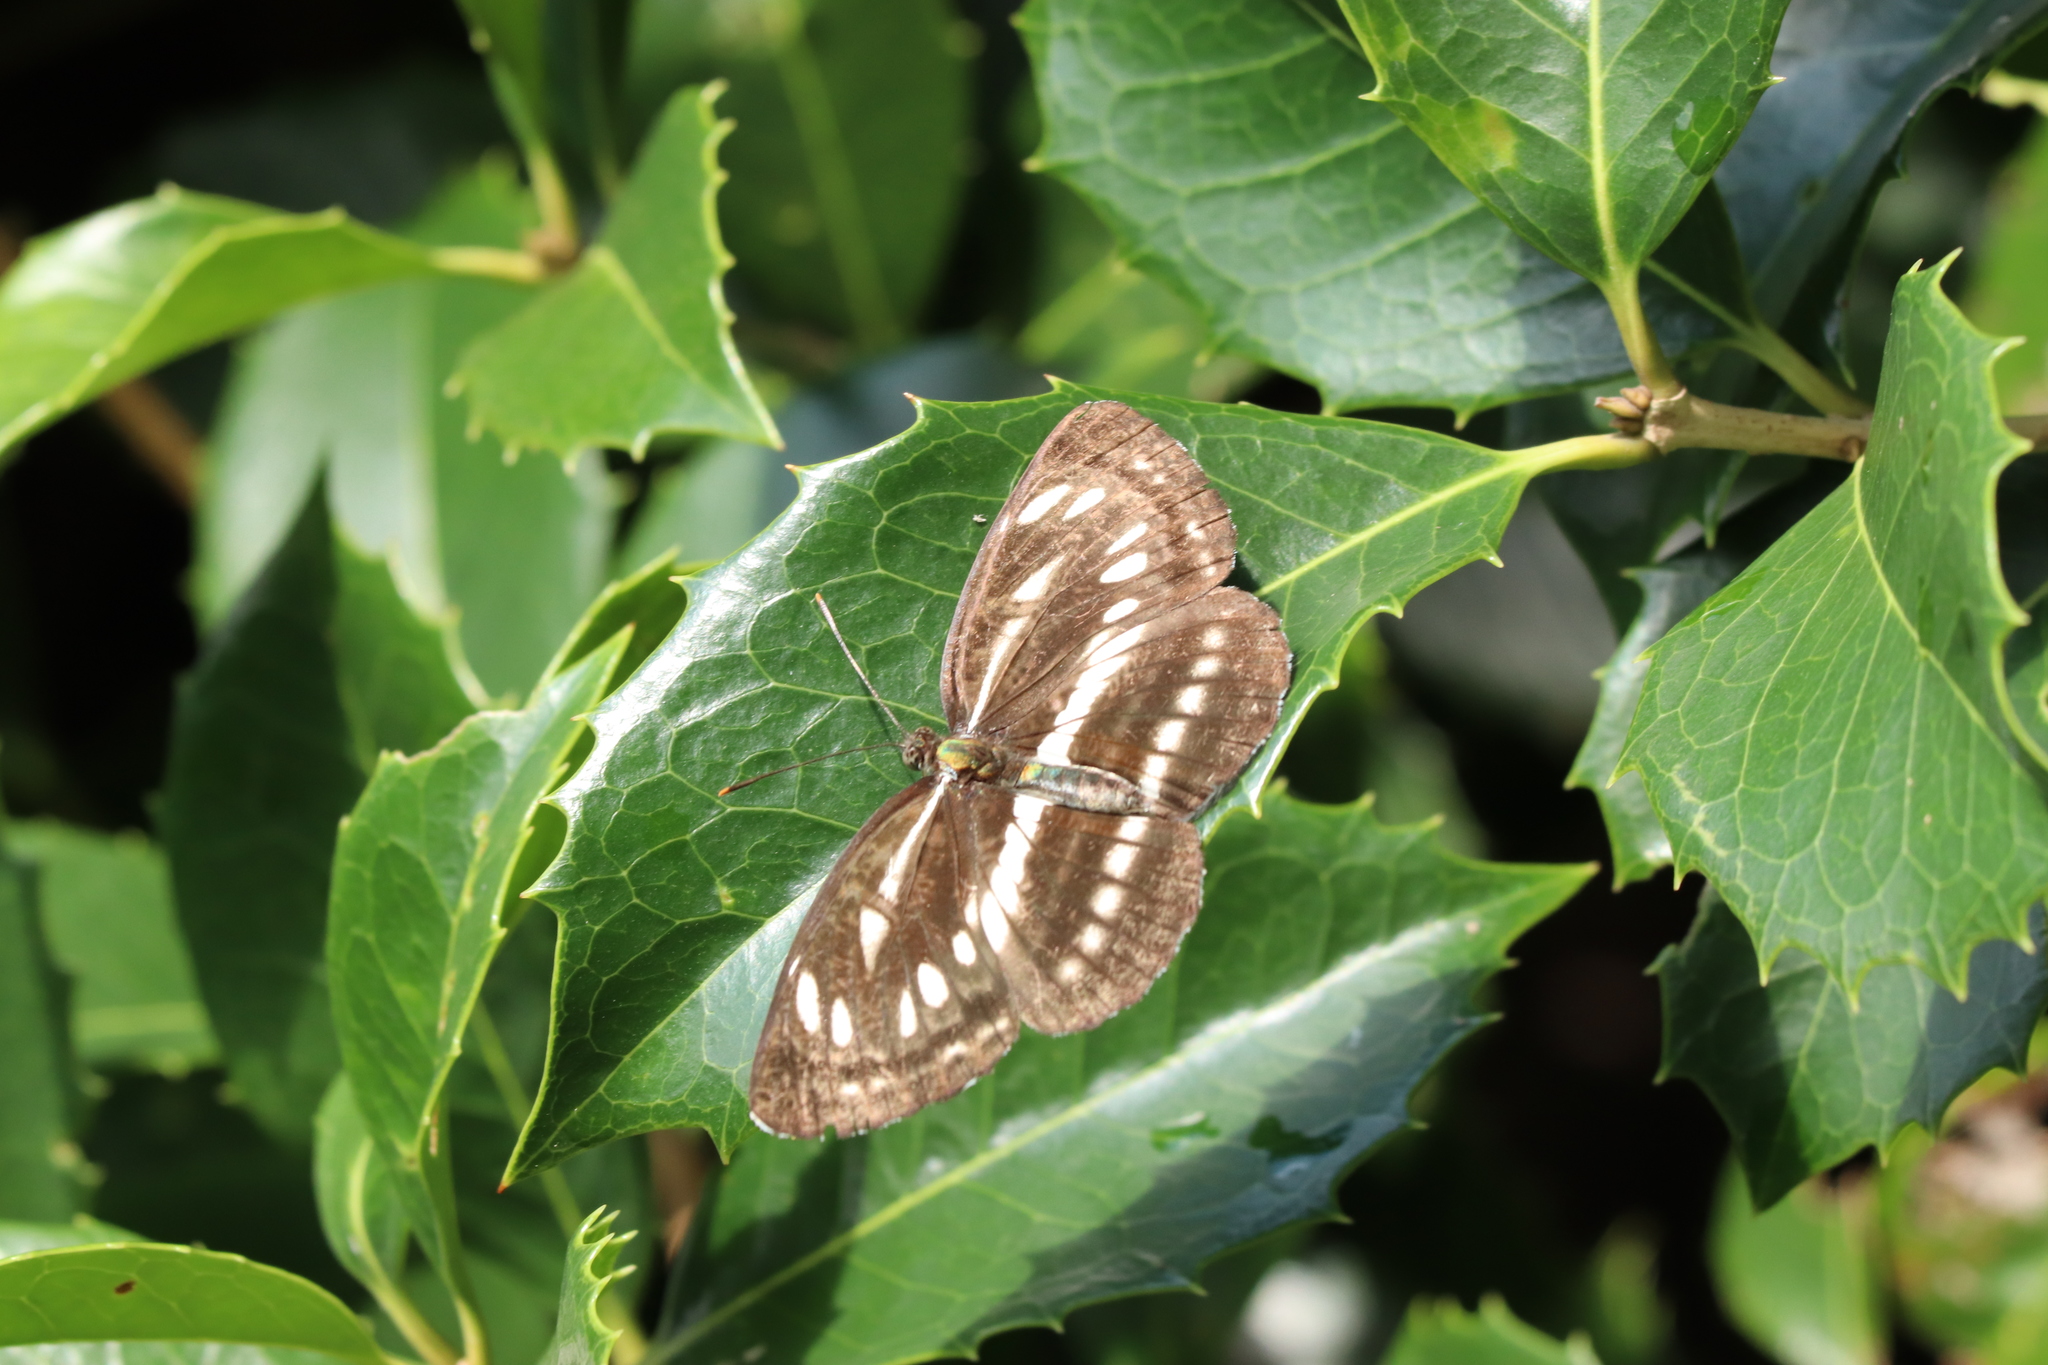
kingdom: Animalia
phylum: Arthropoda
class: Insecta
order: Lepidoptera
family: Nymphalidae
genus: Neptis
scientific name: Neptis sappho
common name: Common glider
